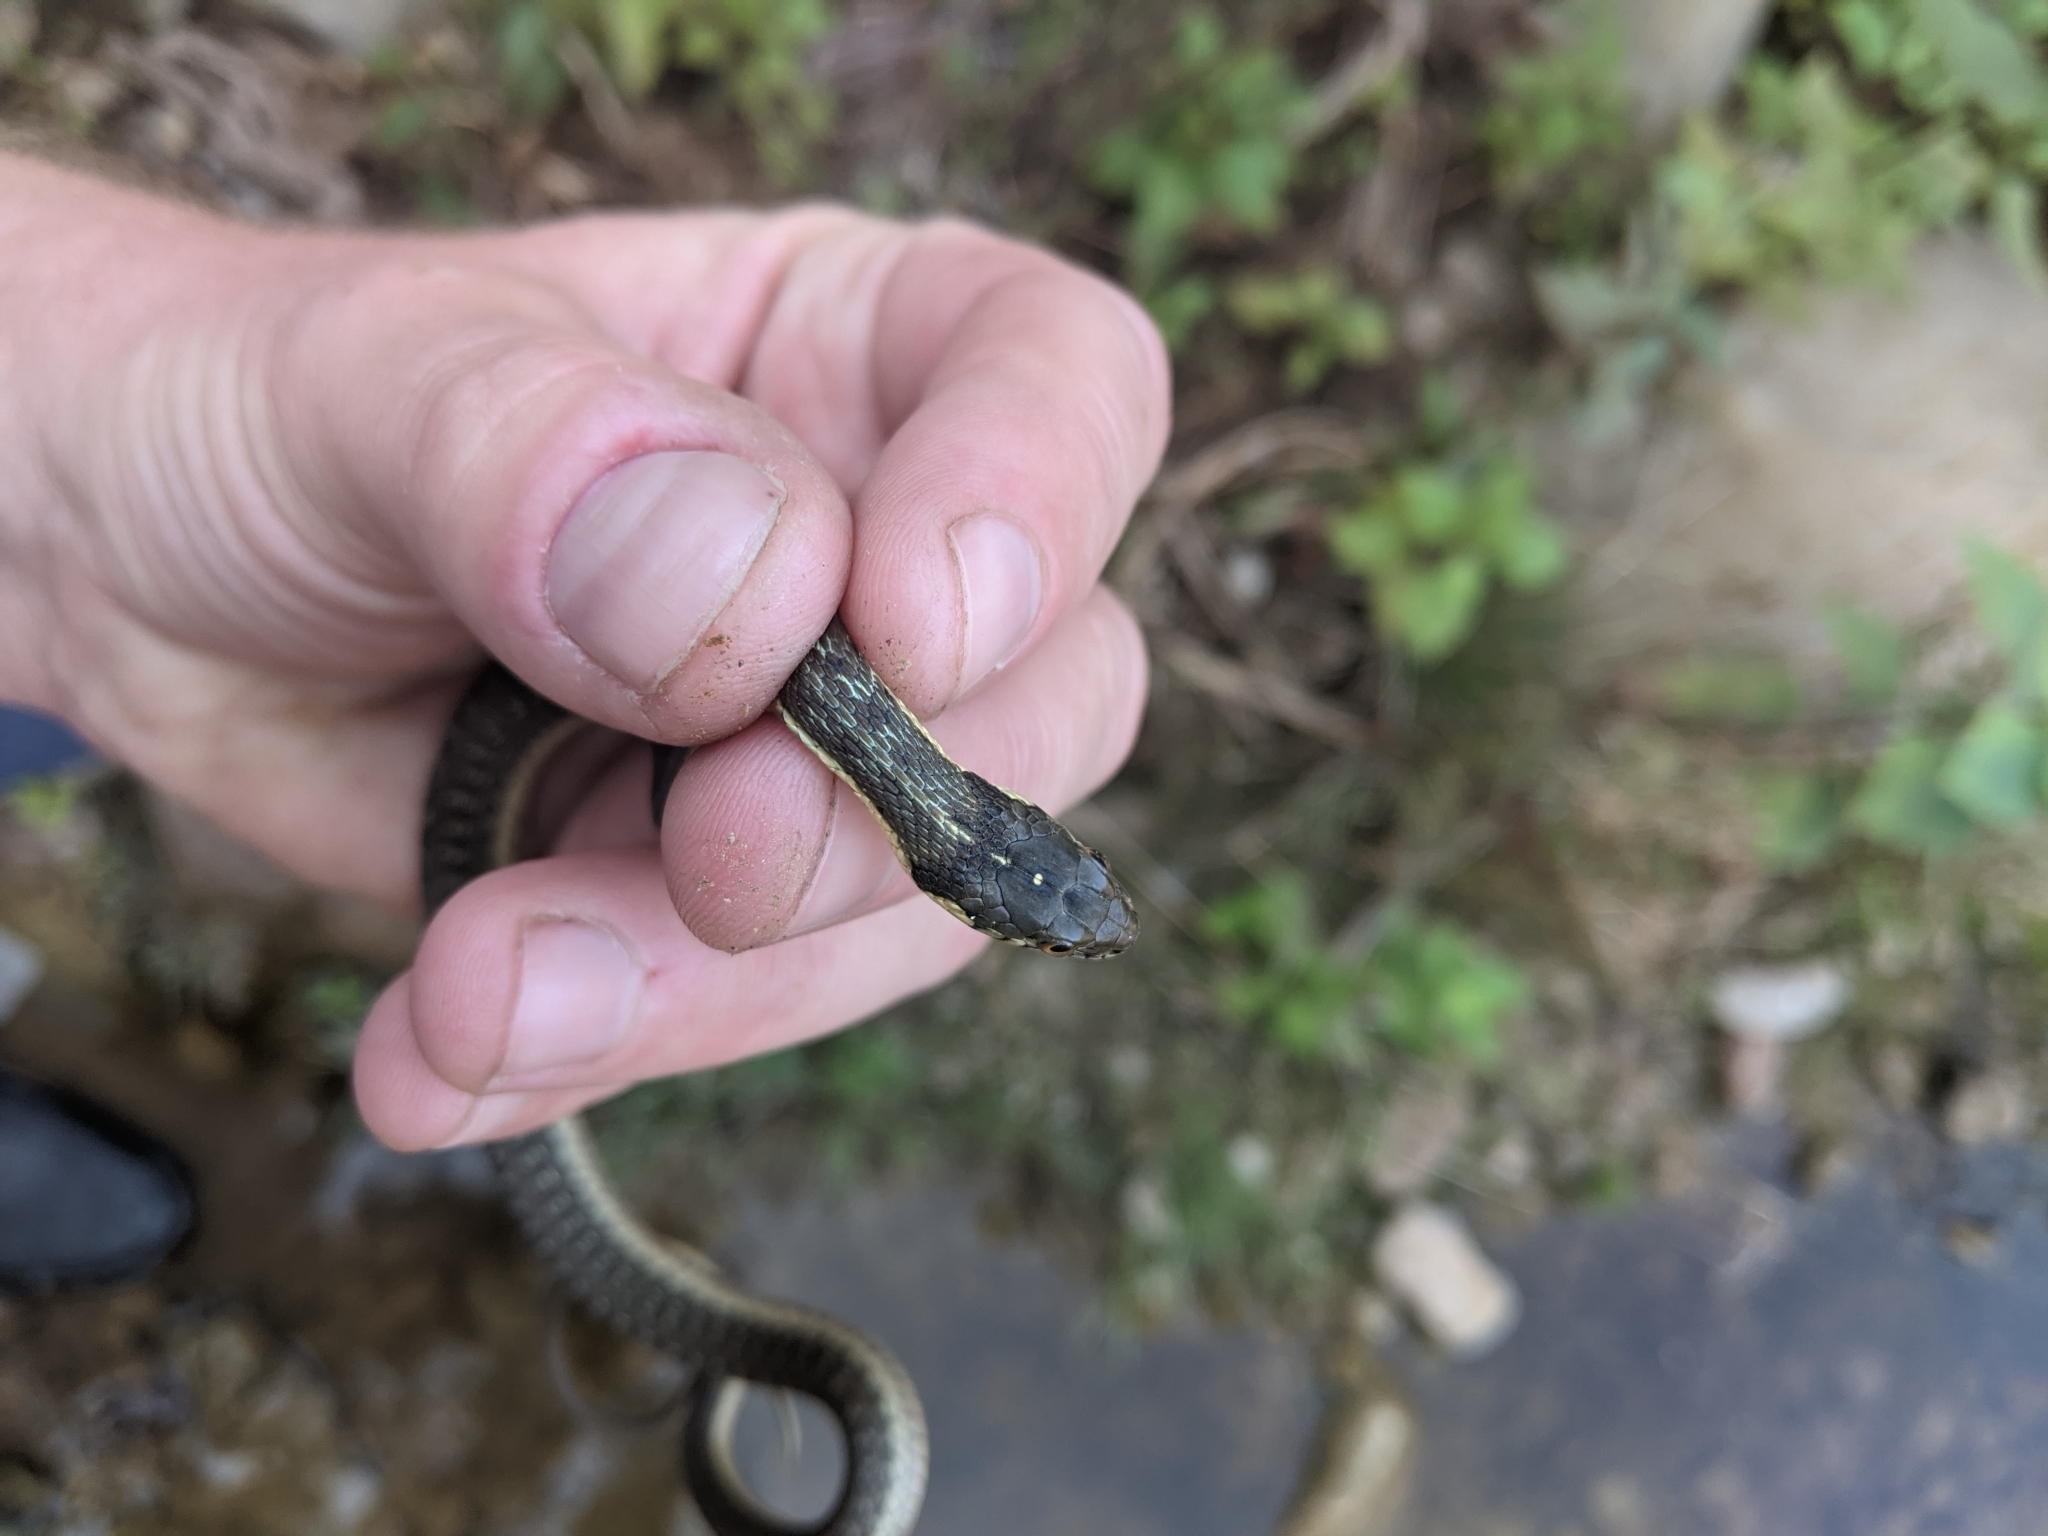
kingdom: Animalia
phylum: Chordata
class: Squamata
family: Colubridae
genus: Thamnophis
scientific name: Thamnophis hammondii
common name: Two-striped garter snake
